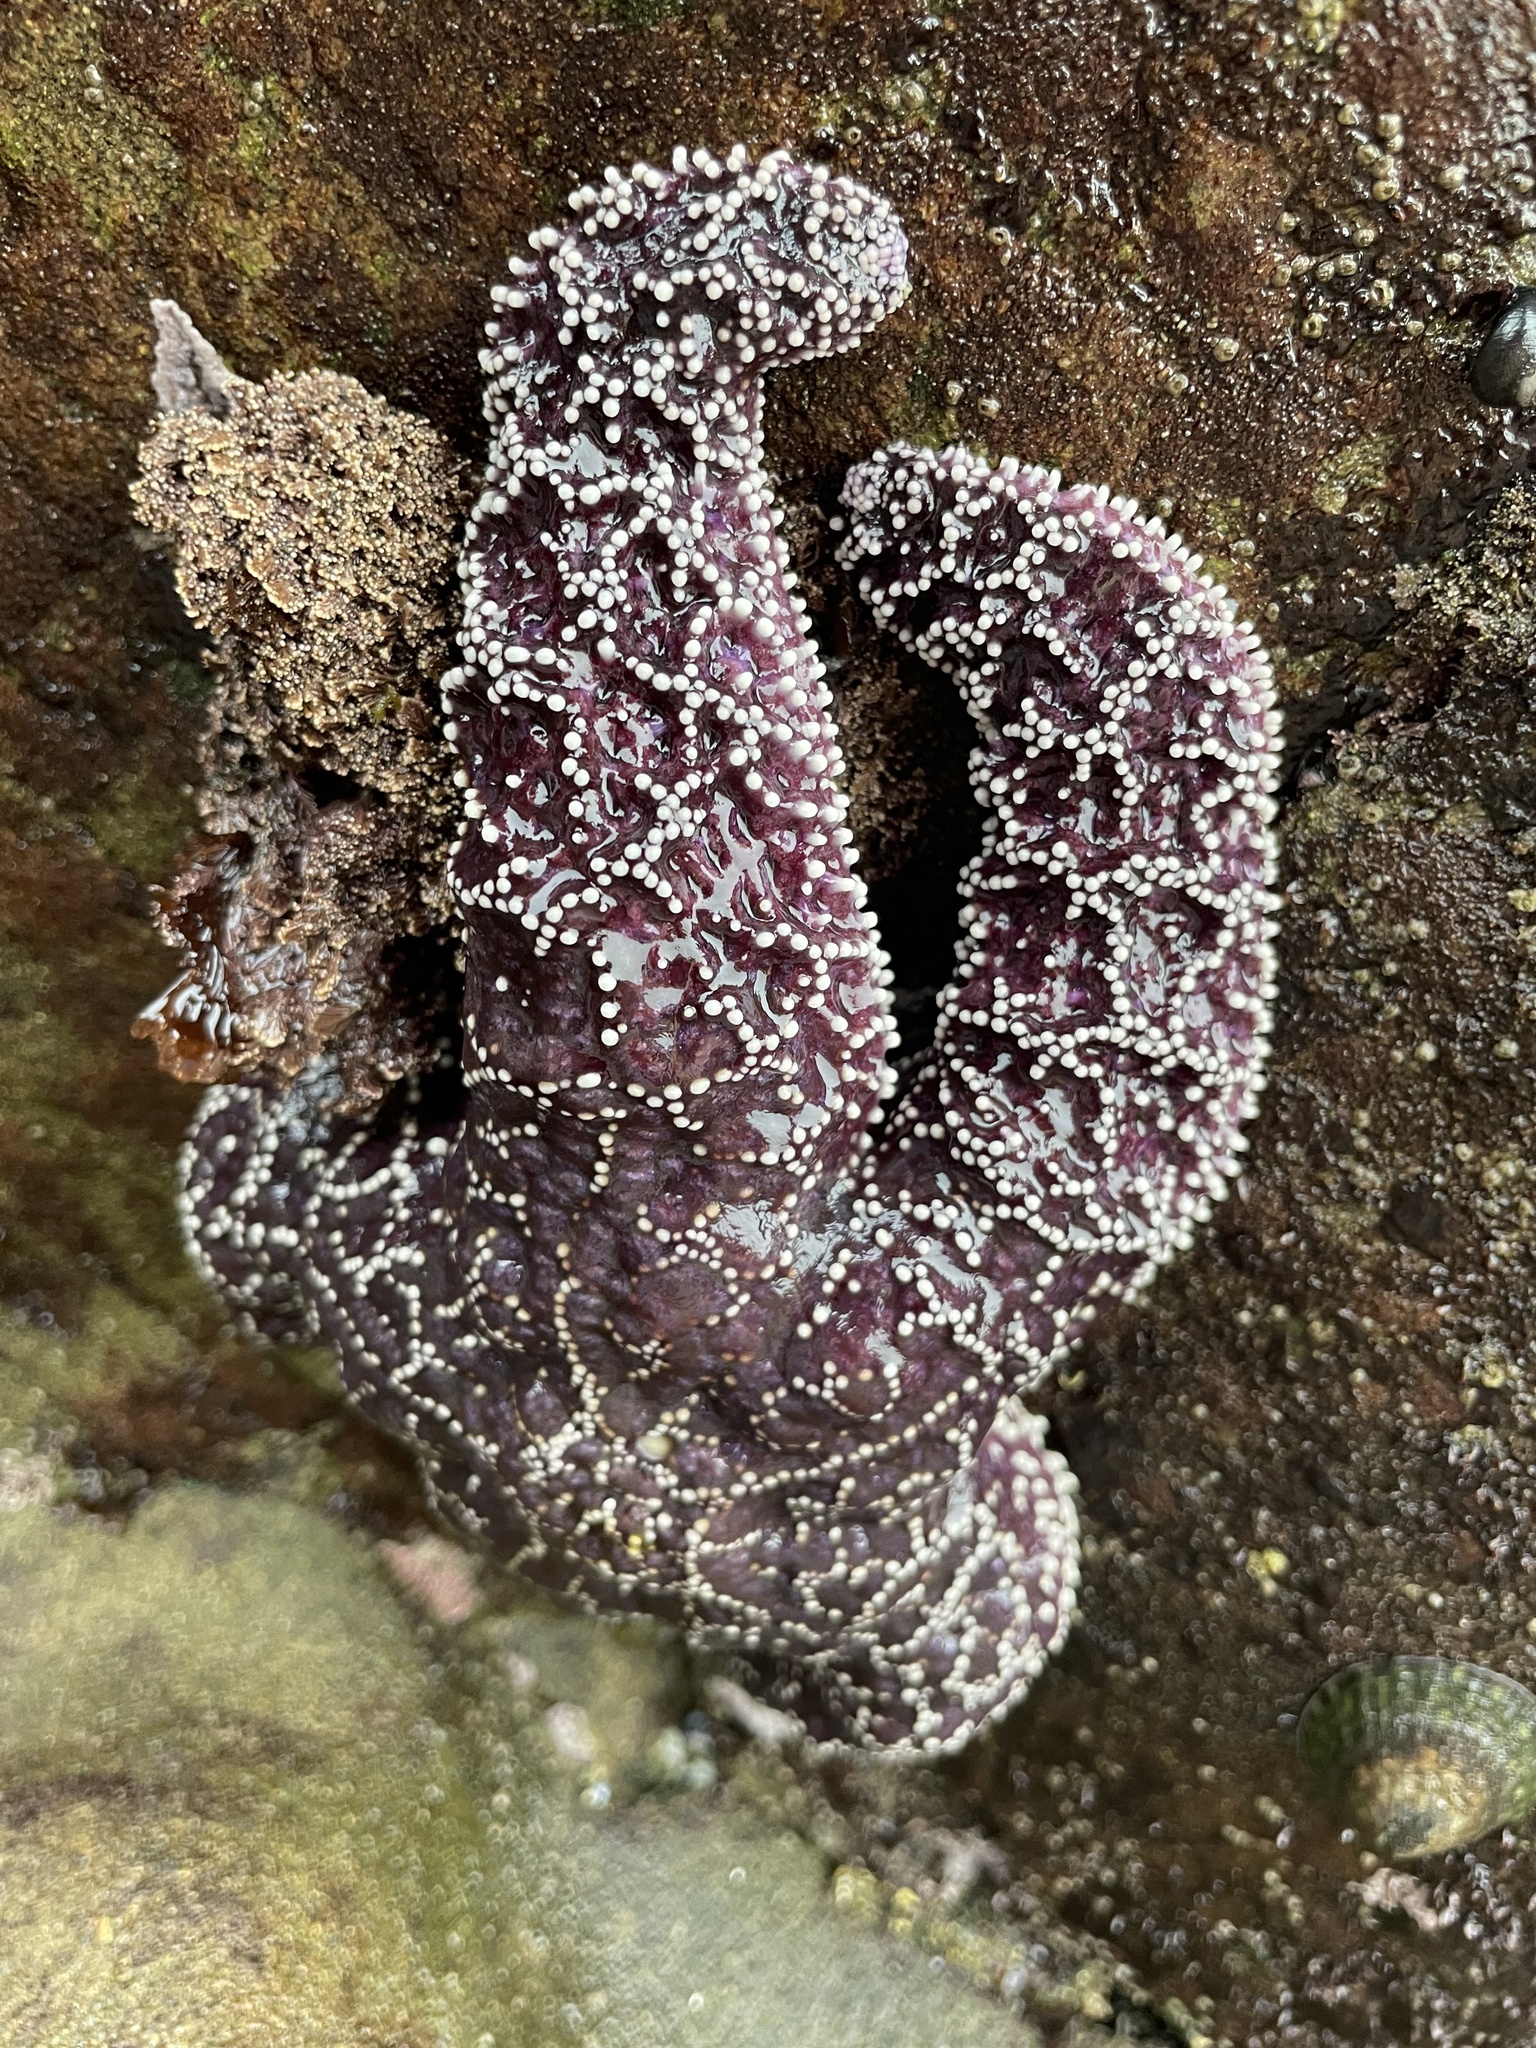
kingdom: Animalia
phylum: Echinodermata
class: Asteroidea
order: Forcipulatida
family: Asteriidae
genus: Pisaster
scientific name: Pisaster ochraceus
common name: Ochre stars
